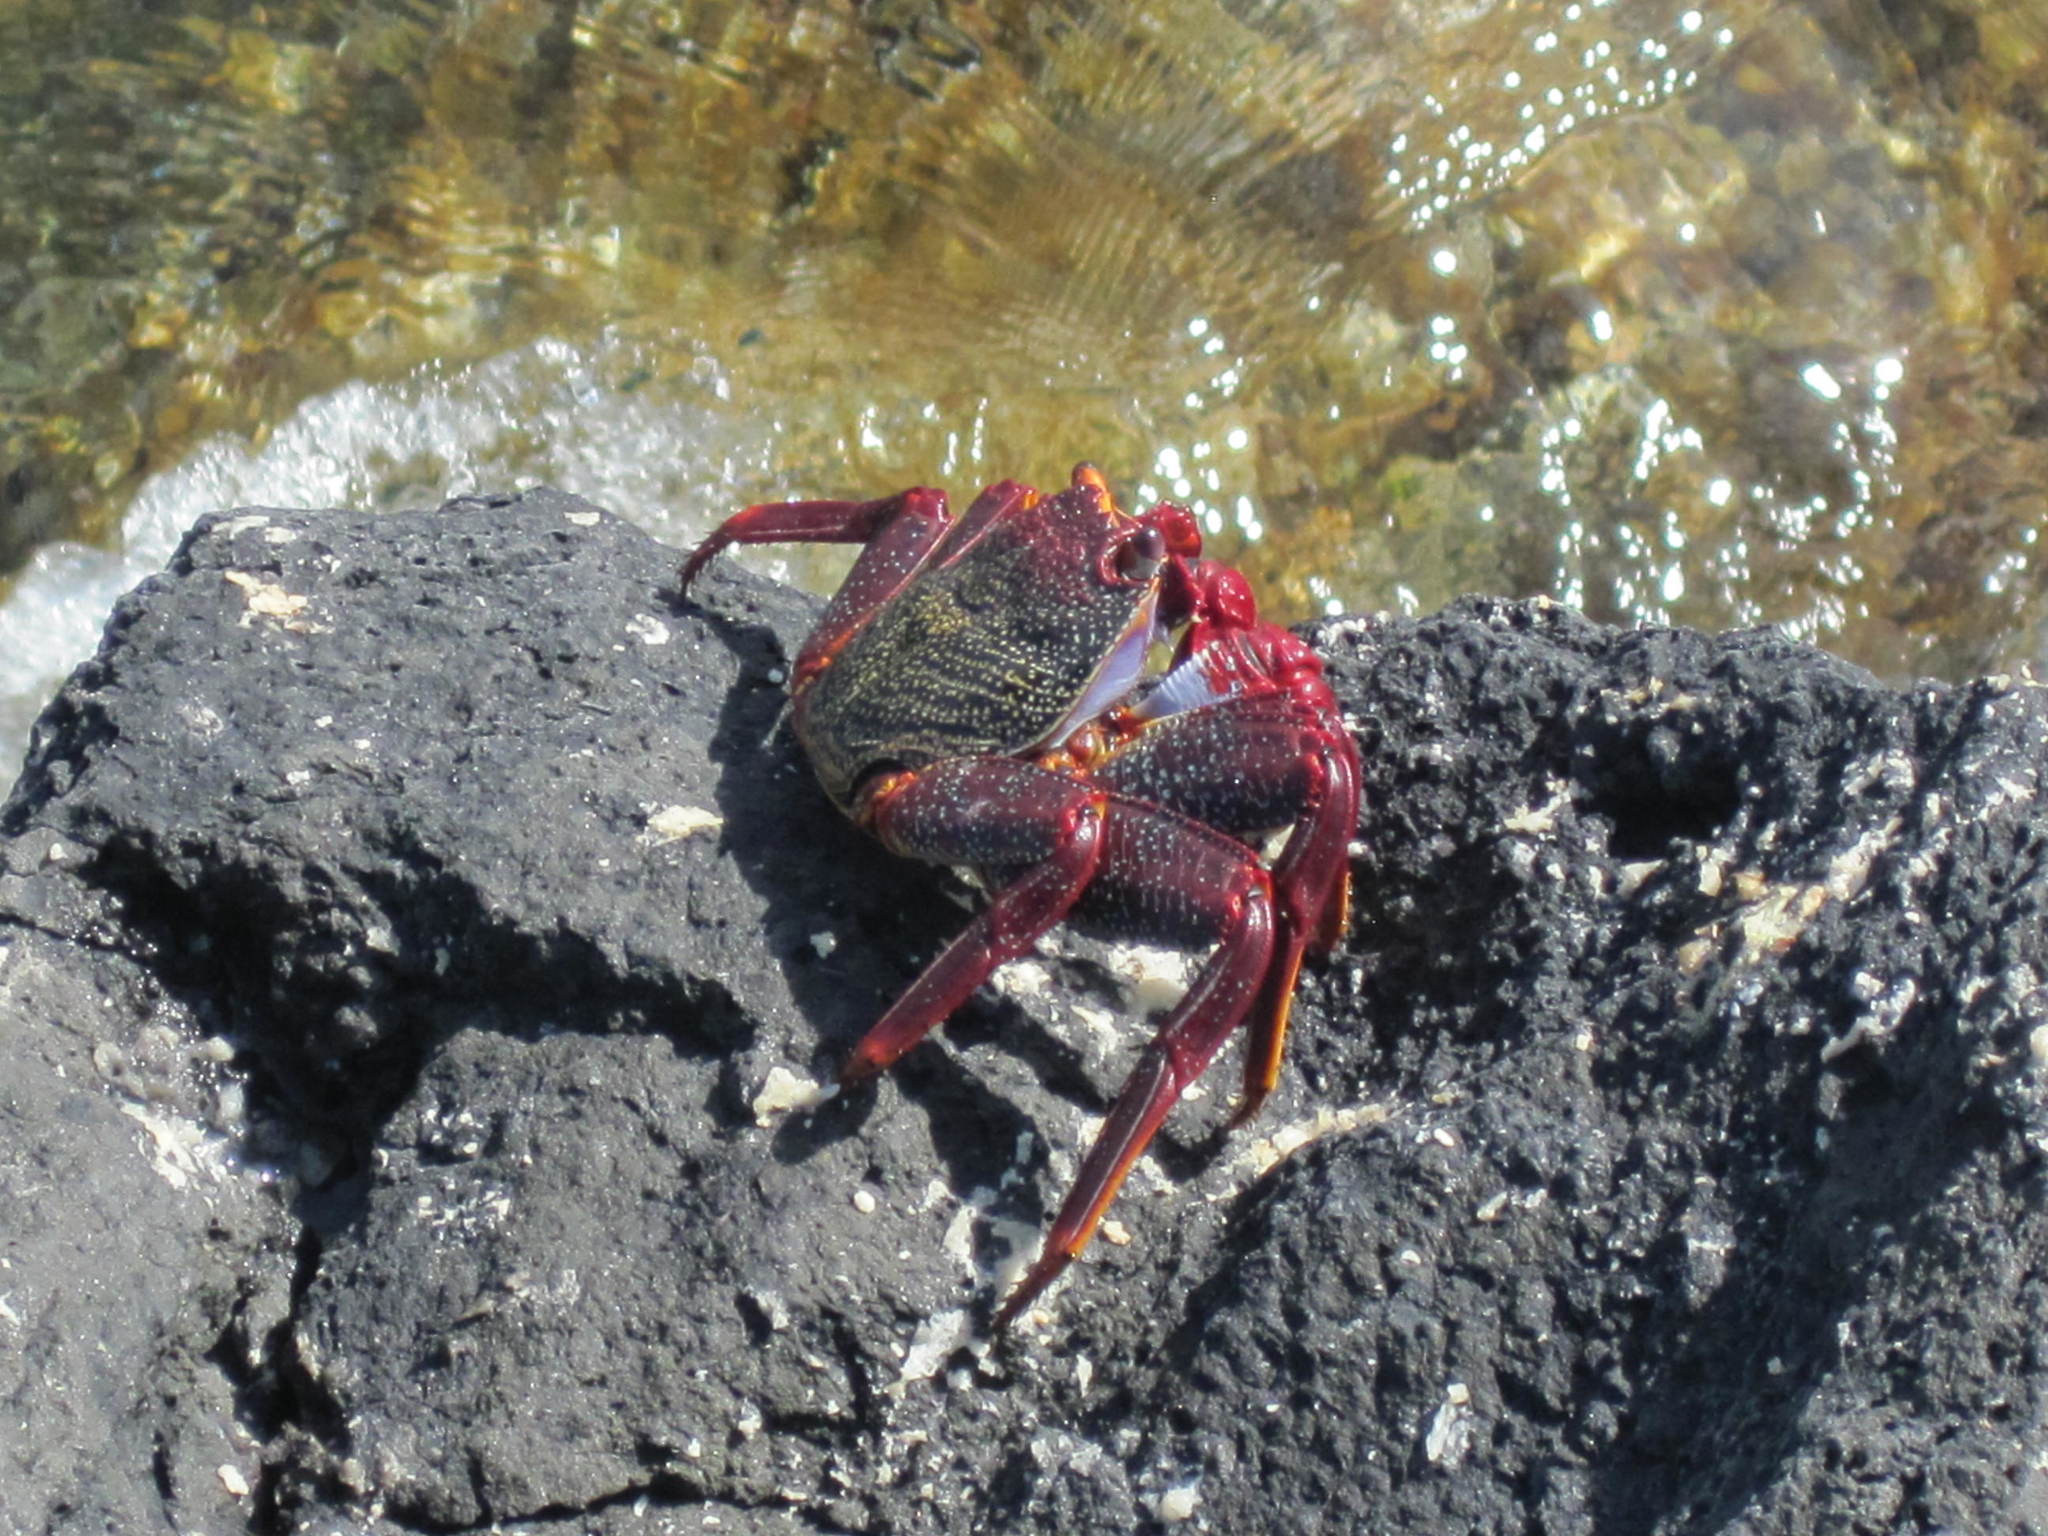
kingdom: Animalia
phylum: Arthropoda
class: Malacostraca
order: Decapoda
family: Grapsidae
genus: Grapsus
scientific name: Grapsus adscensionis
